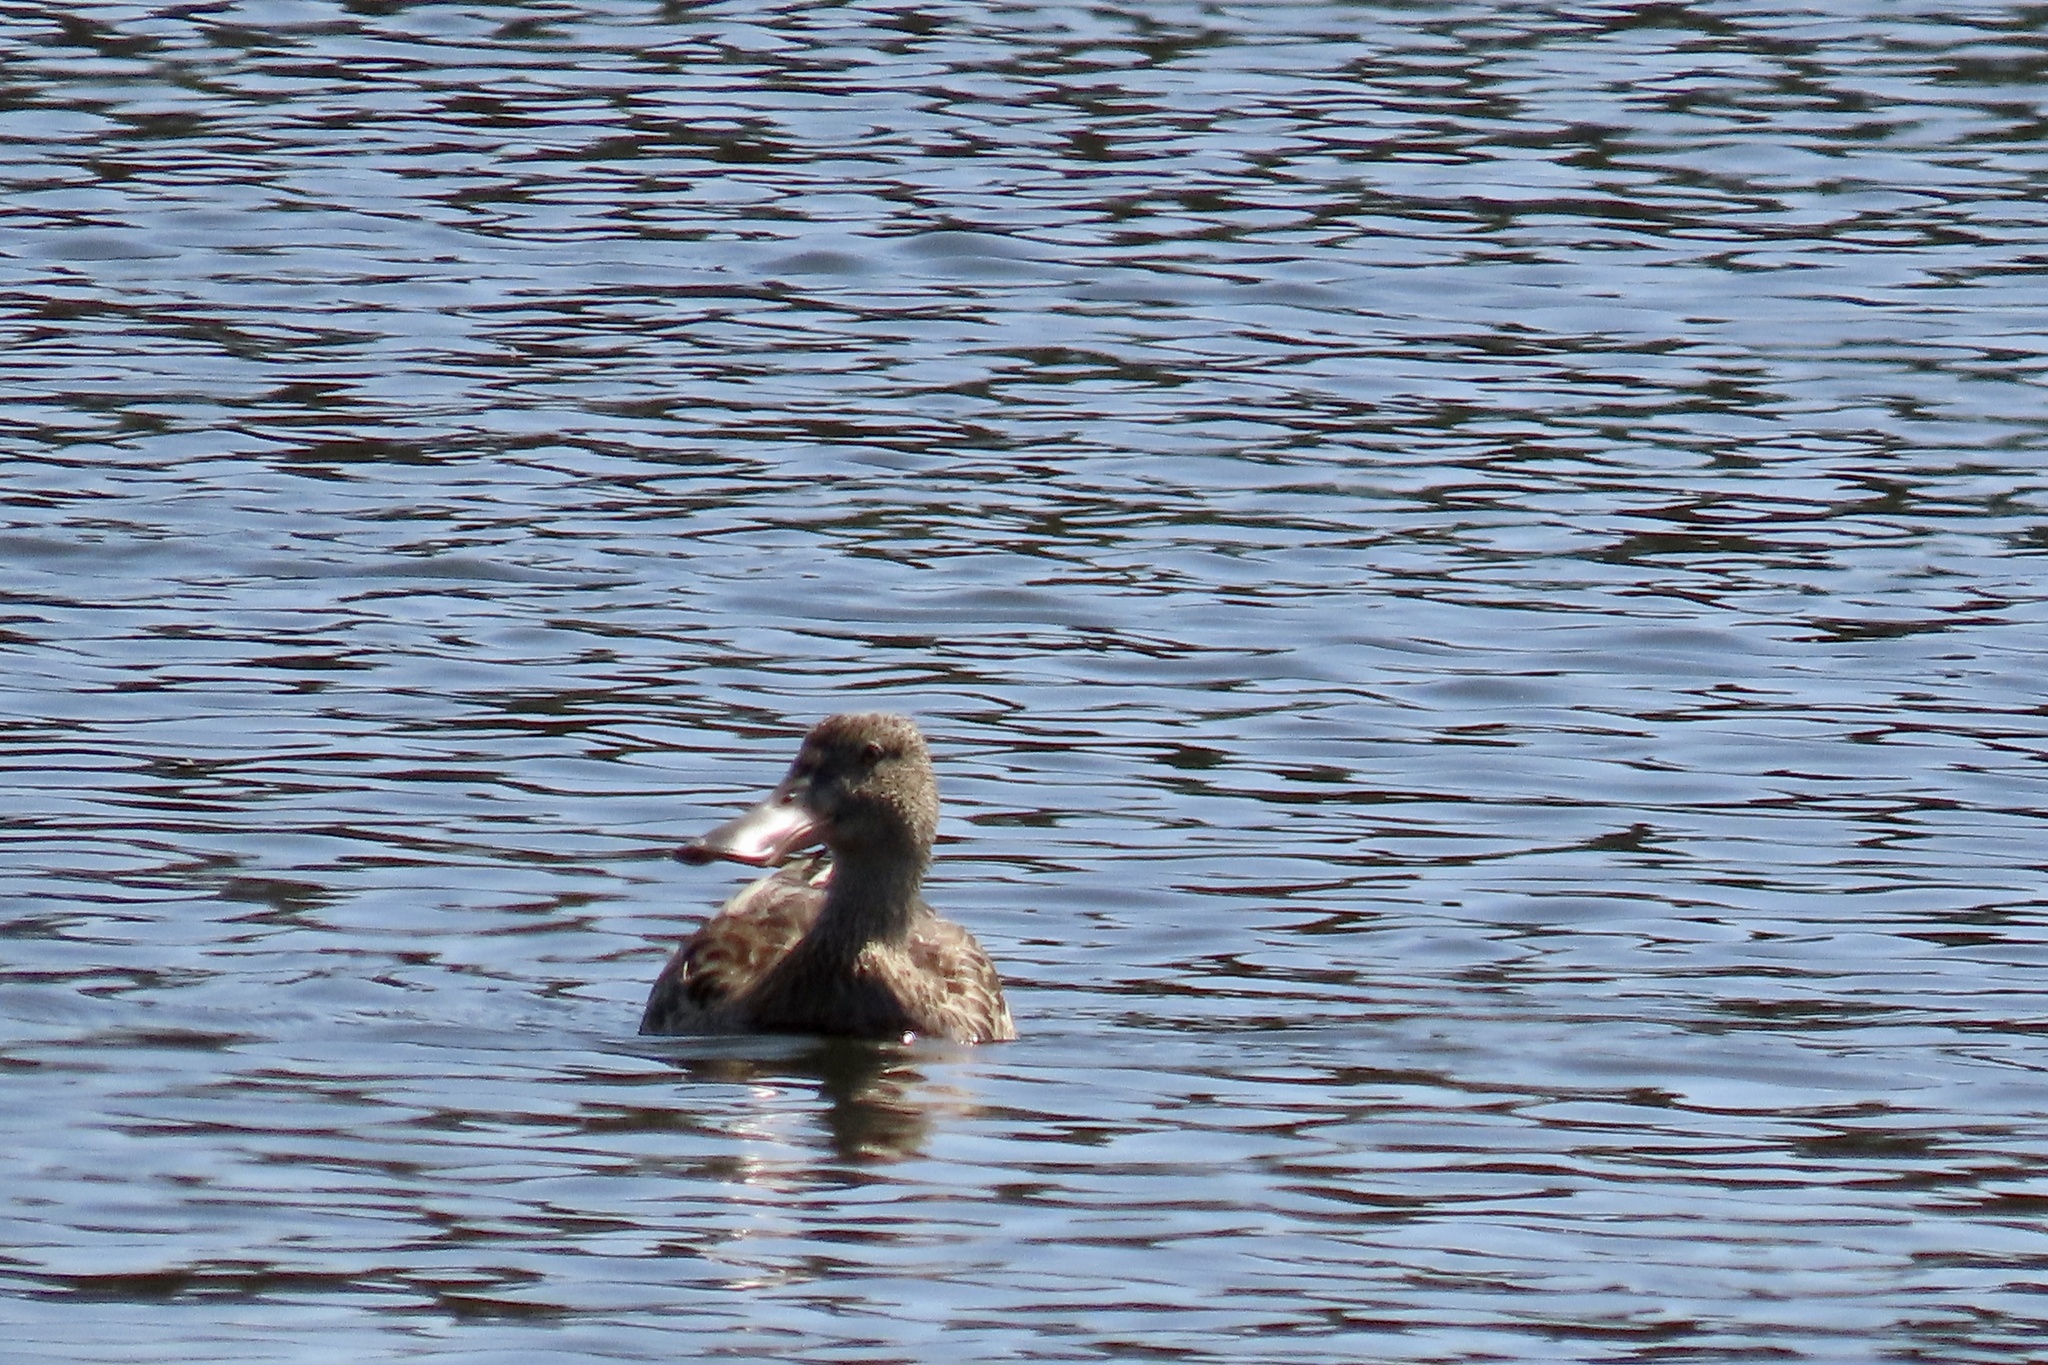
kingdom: Animalia
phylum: Chordata
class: Aves
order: Anseriformes
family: Anatidae
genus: Spatula
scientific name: Spatula clypeata
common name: Northern shoveler
